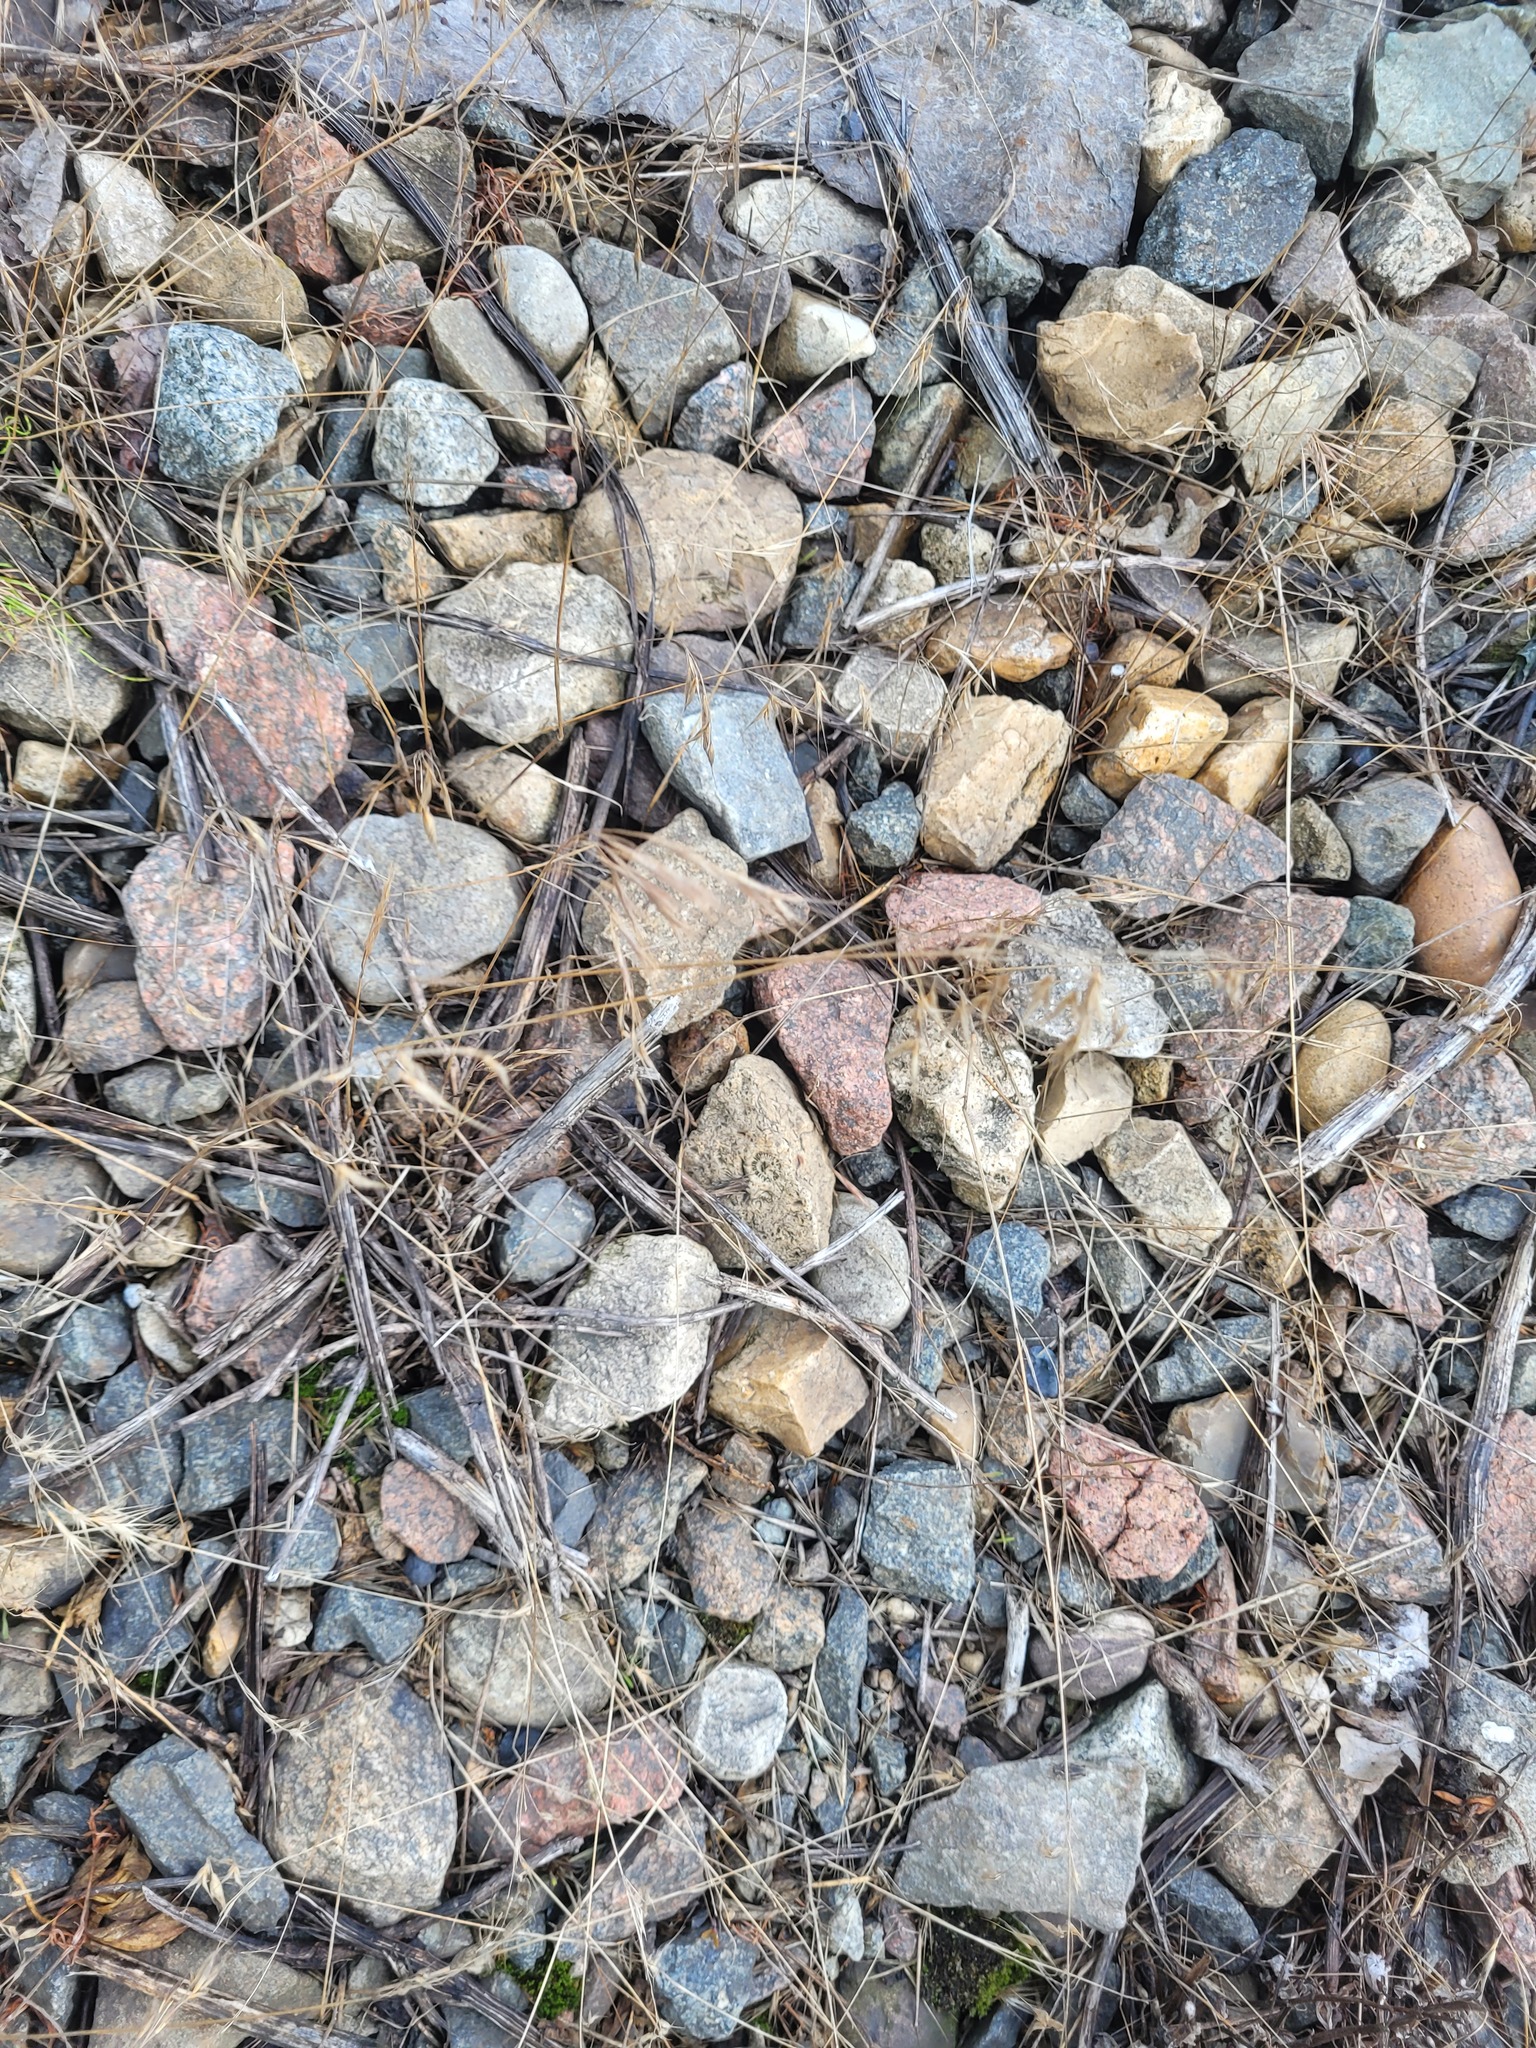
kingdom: Plantae
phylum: Tracheophyta
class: Liliopsida
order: Poales
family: Poaceae
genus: Bromus
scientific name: Bromus tectorum
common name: Cheatgrass
